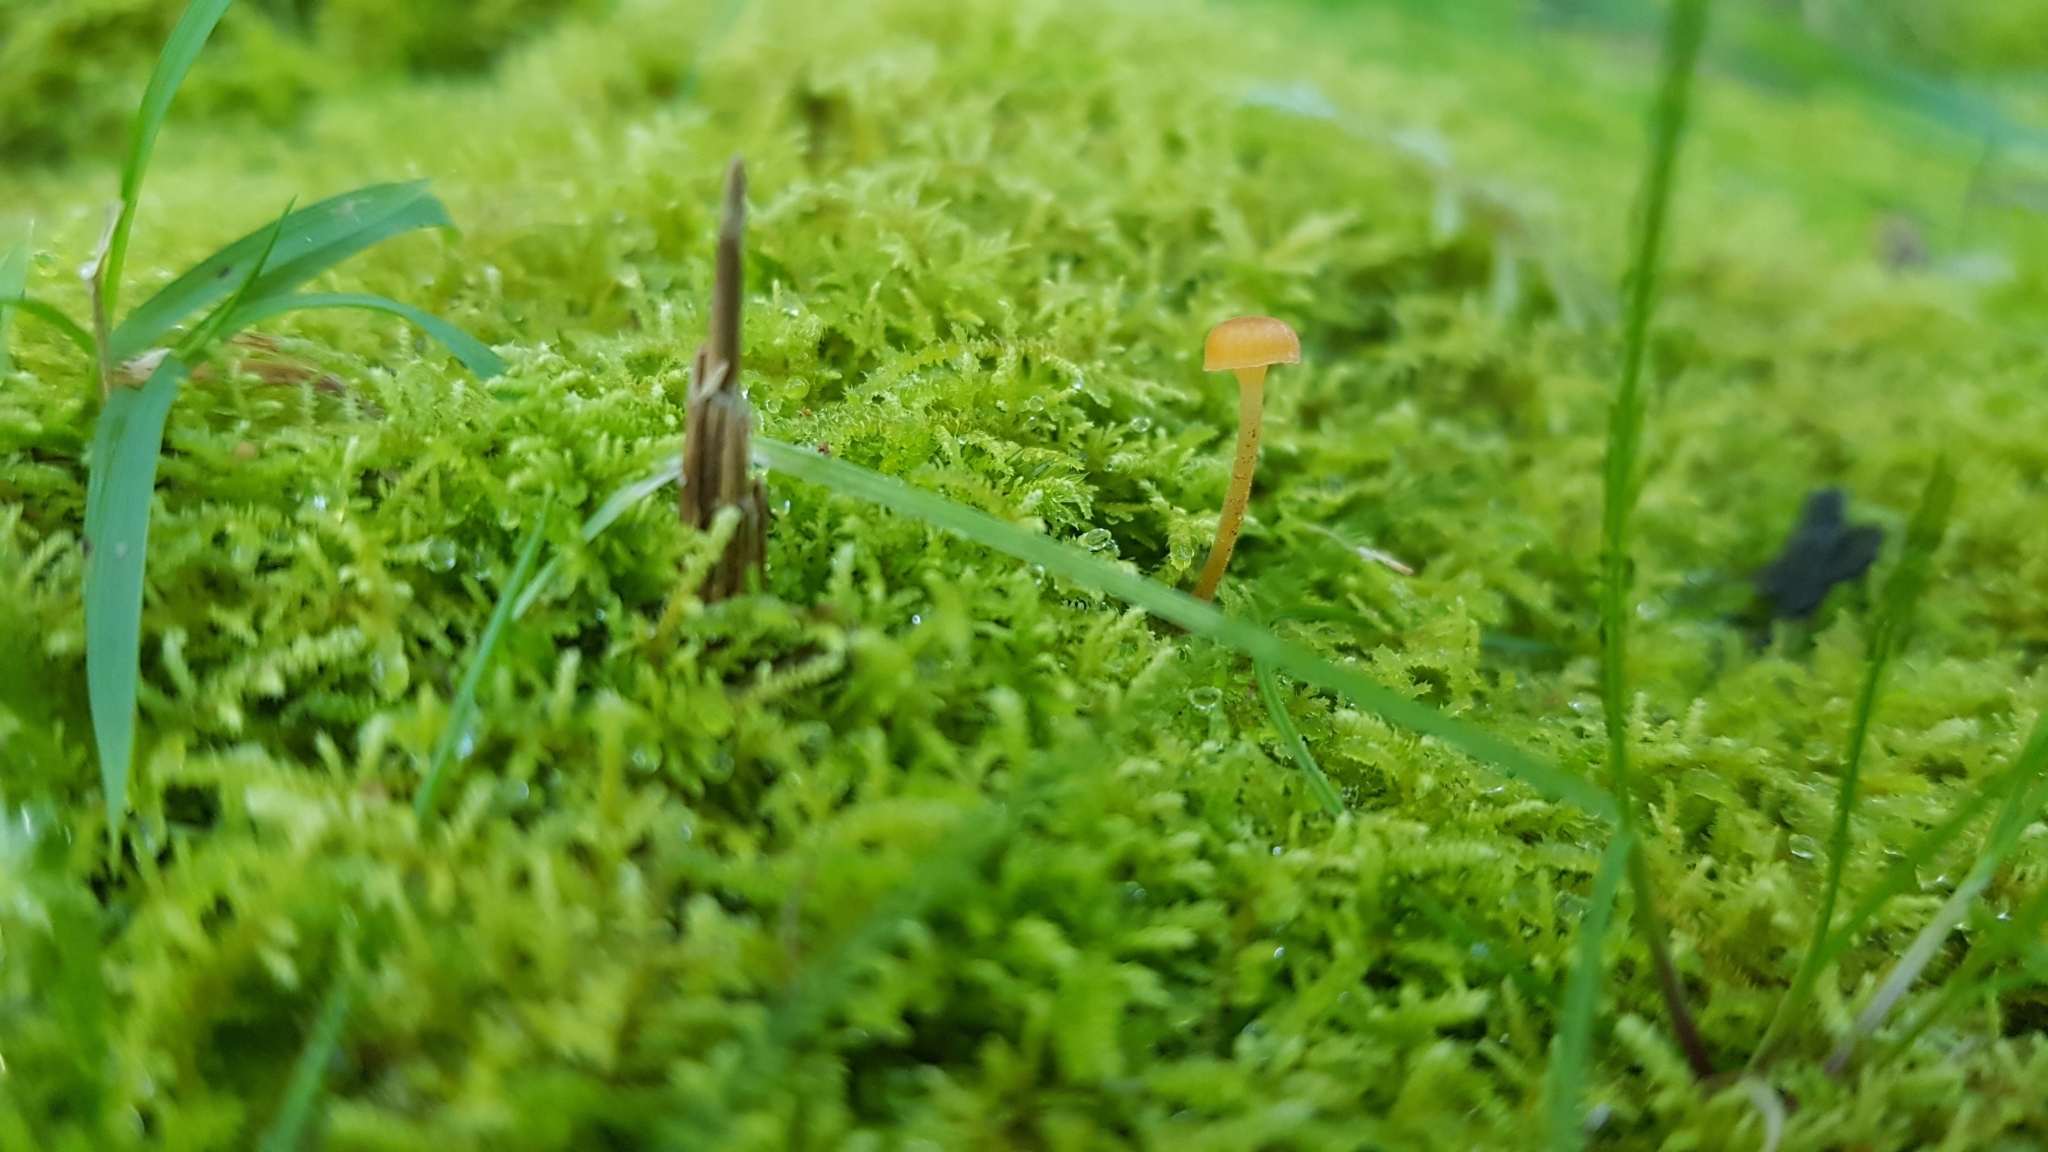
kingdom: Fungi
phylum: Basidiomycota
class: Agaricomycetes
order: Hymenochaetales
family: Rickenellaceae
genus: Rickenella
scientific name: Rickenella fibula
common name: Orange mosscap
